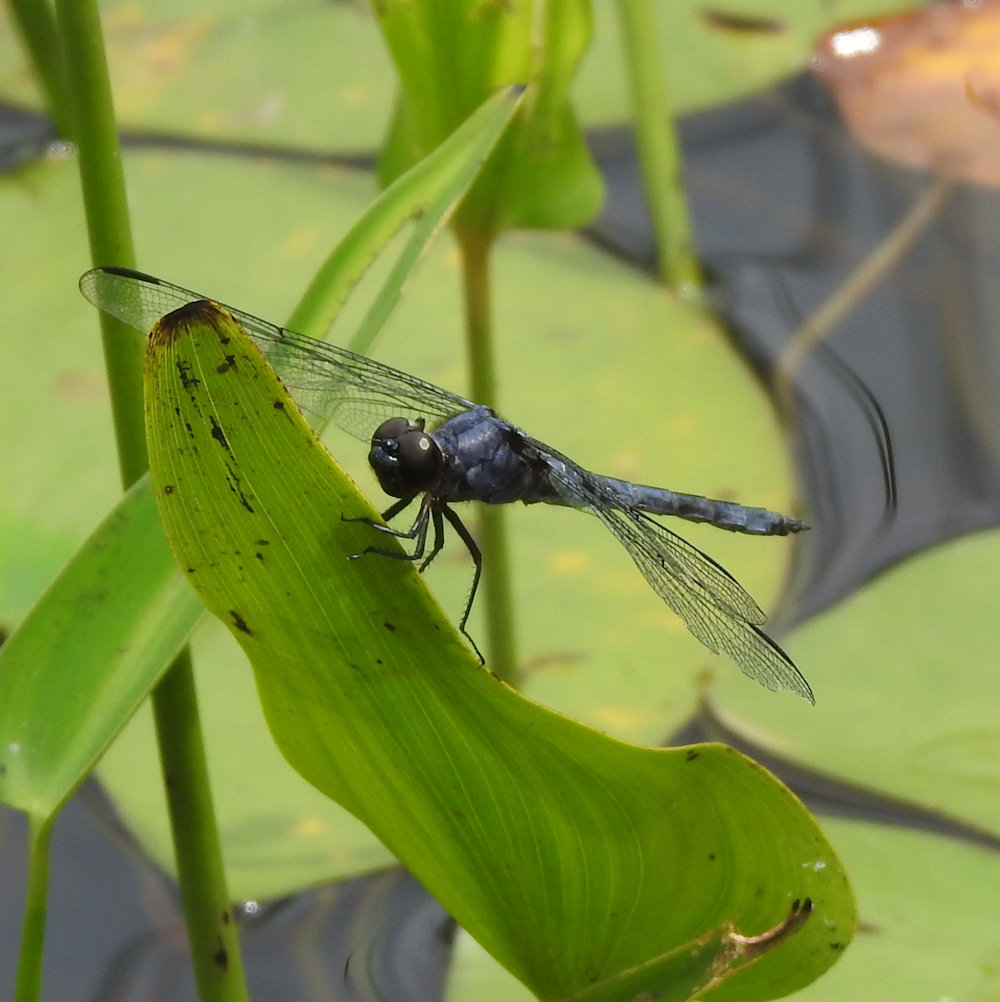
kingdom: Animalia
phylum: Arthropoda
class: Insecta
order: Odonata
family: Libellulidae
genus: Libellula
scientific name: Libellula incesta
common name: Slaty skimmer
